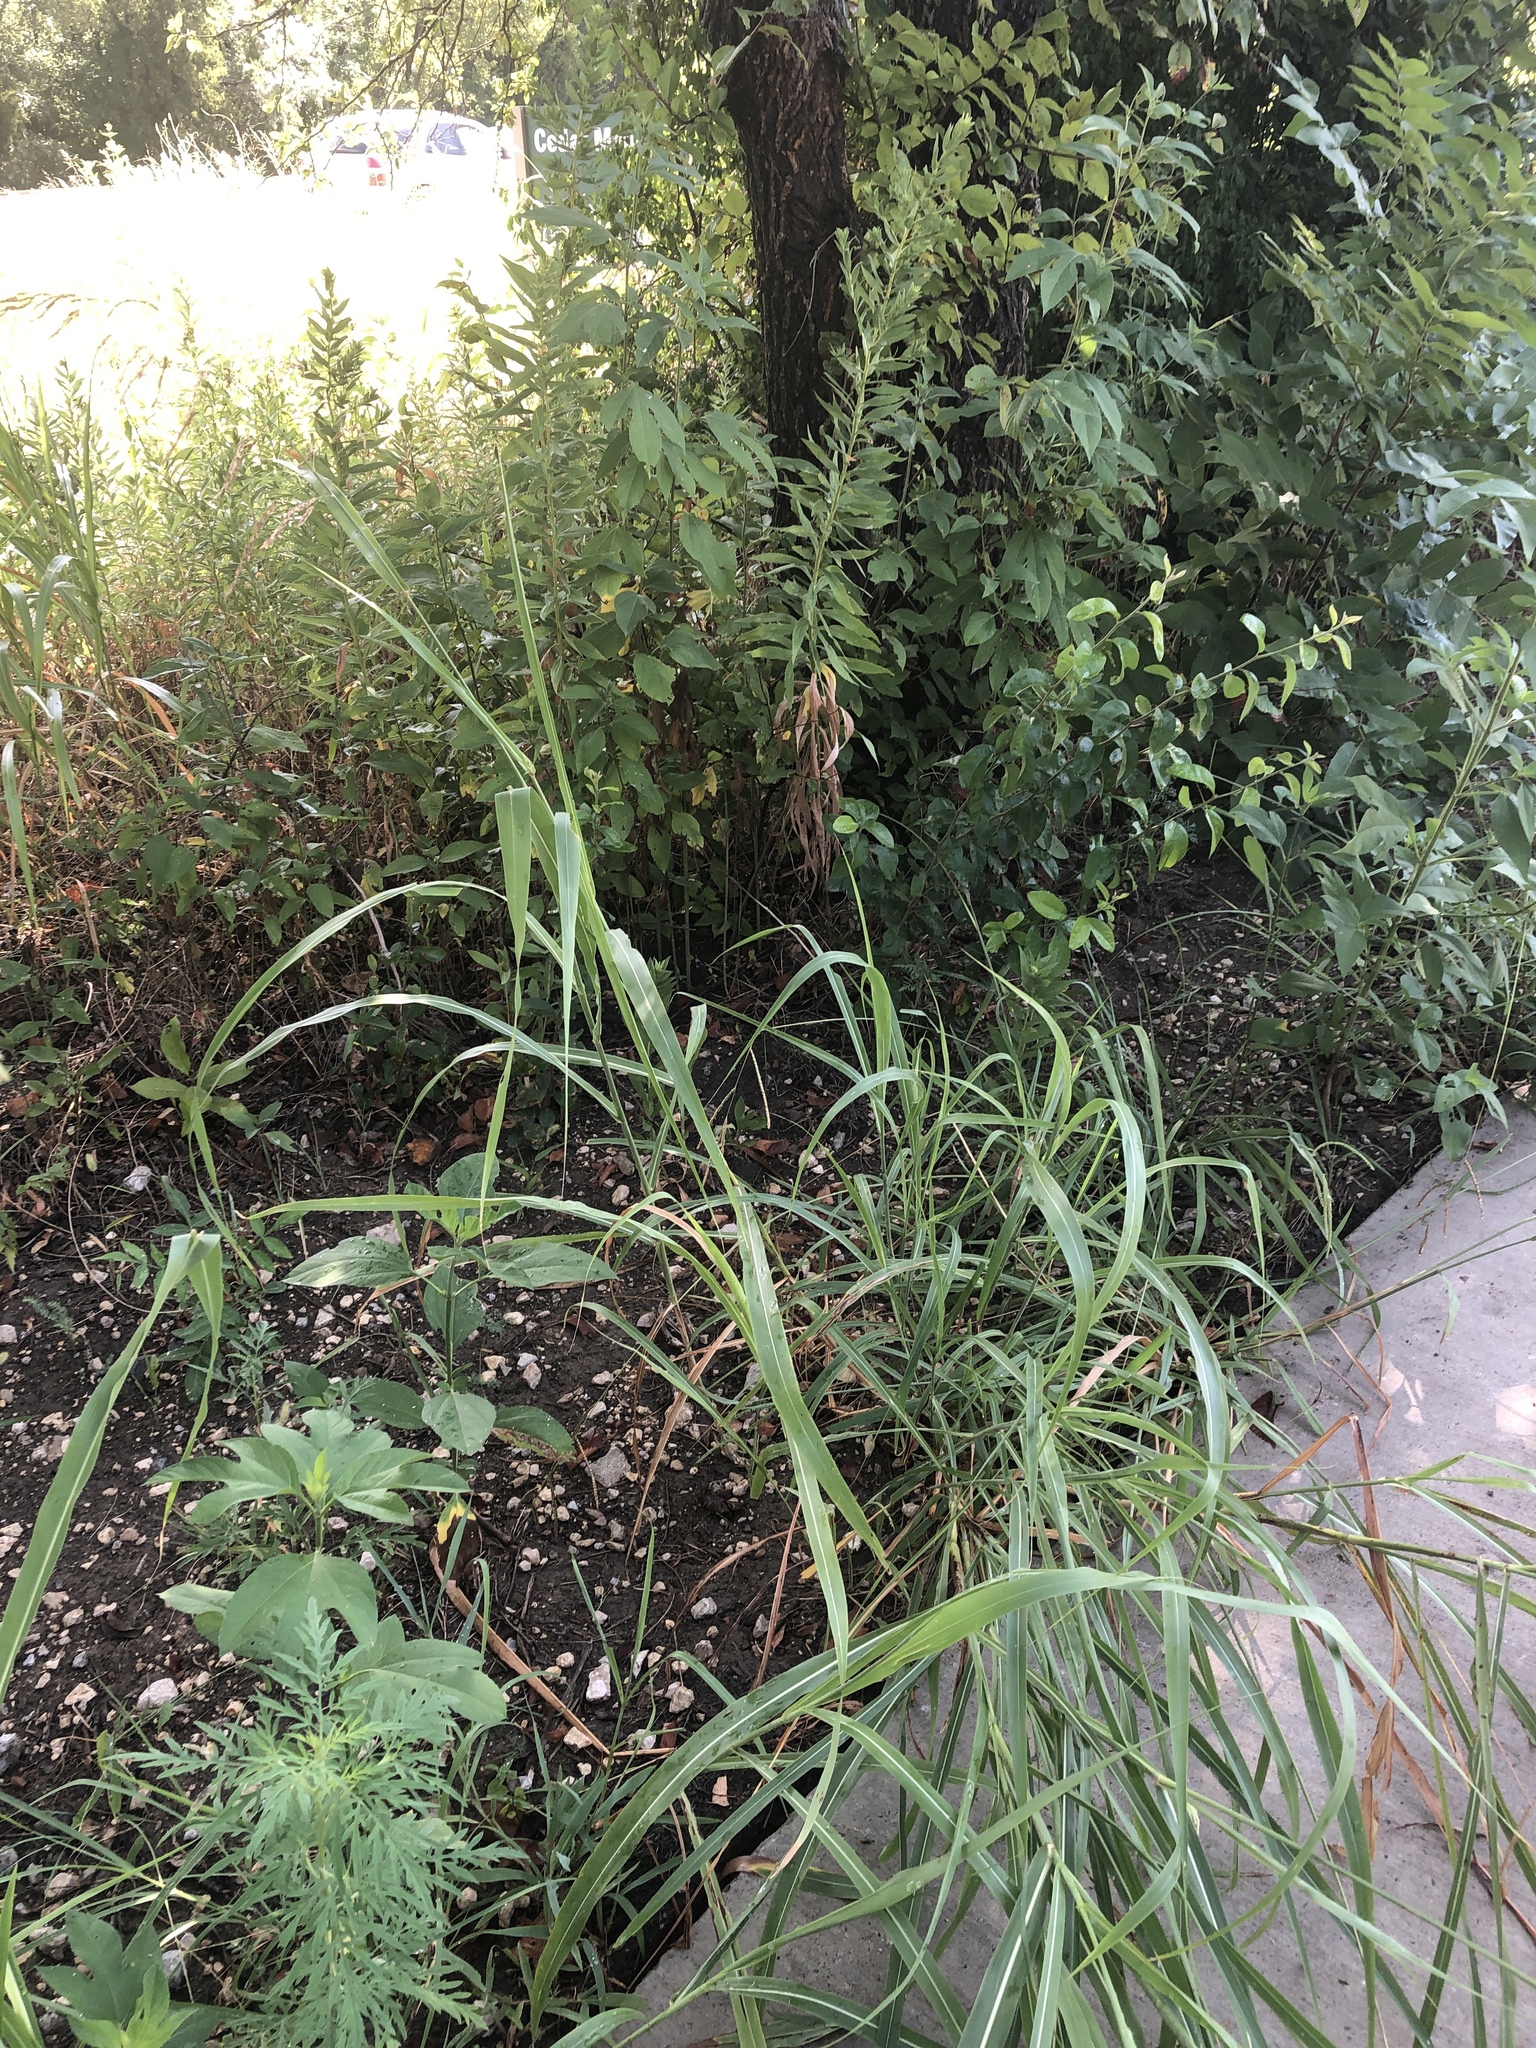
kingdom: Plantae
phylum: Tracheophyta
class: Liliopsida
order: Poales
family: Poaceae
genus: Sorghum
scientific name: Sorghum halepense
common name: Johnson-grass
